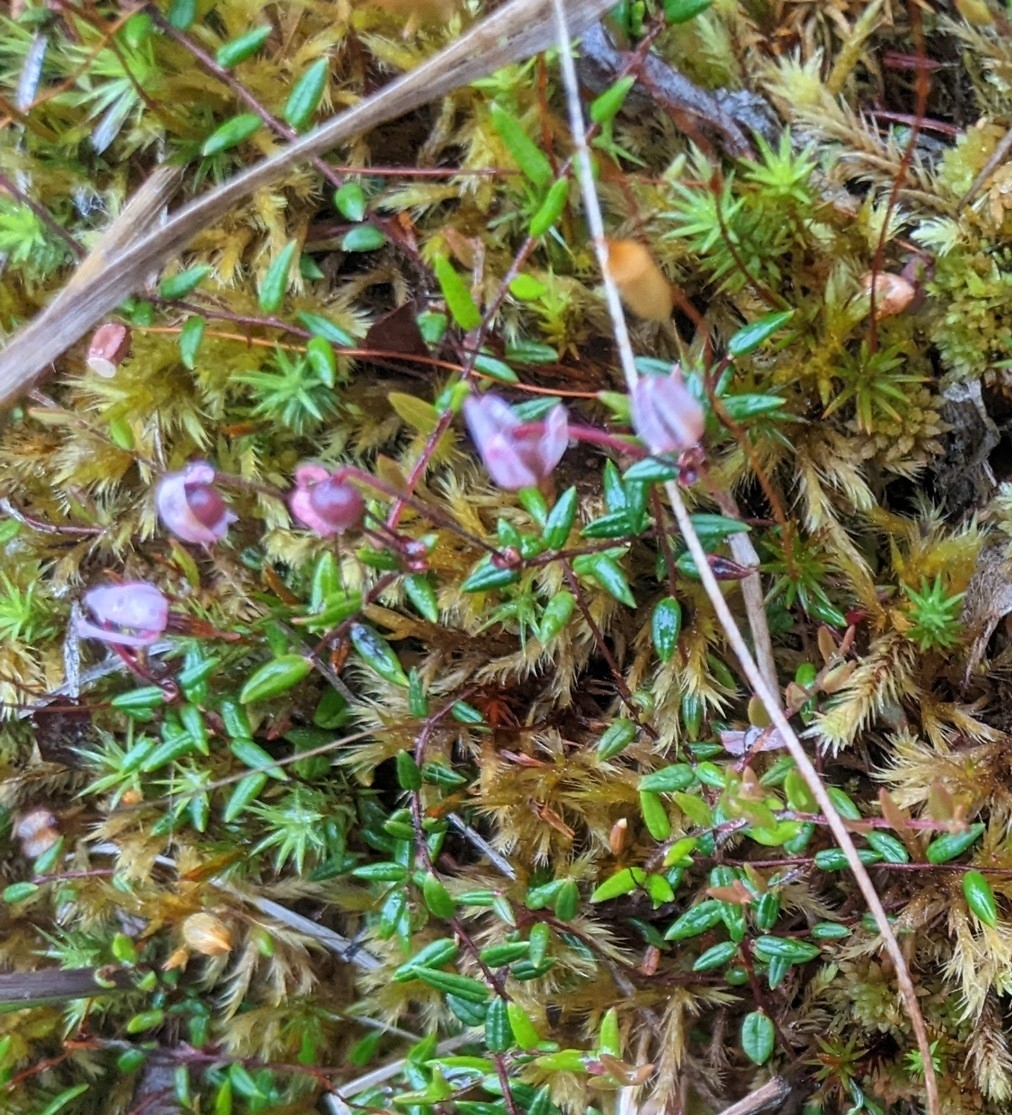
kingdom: Plantae
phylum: Tracheophyta
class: Magnoliopsida
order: Ericales
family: Ericaceae
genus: Vaccinium
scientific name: Vaccinium oxycoccos
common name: Cranberry
